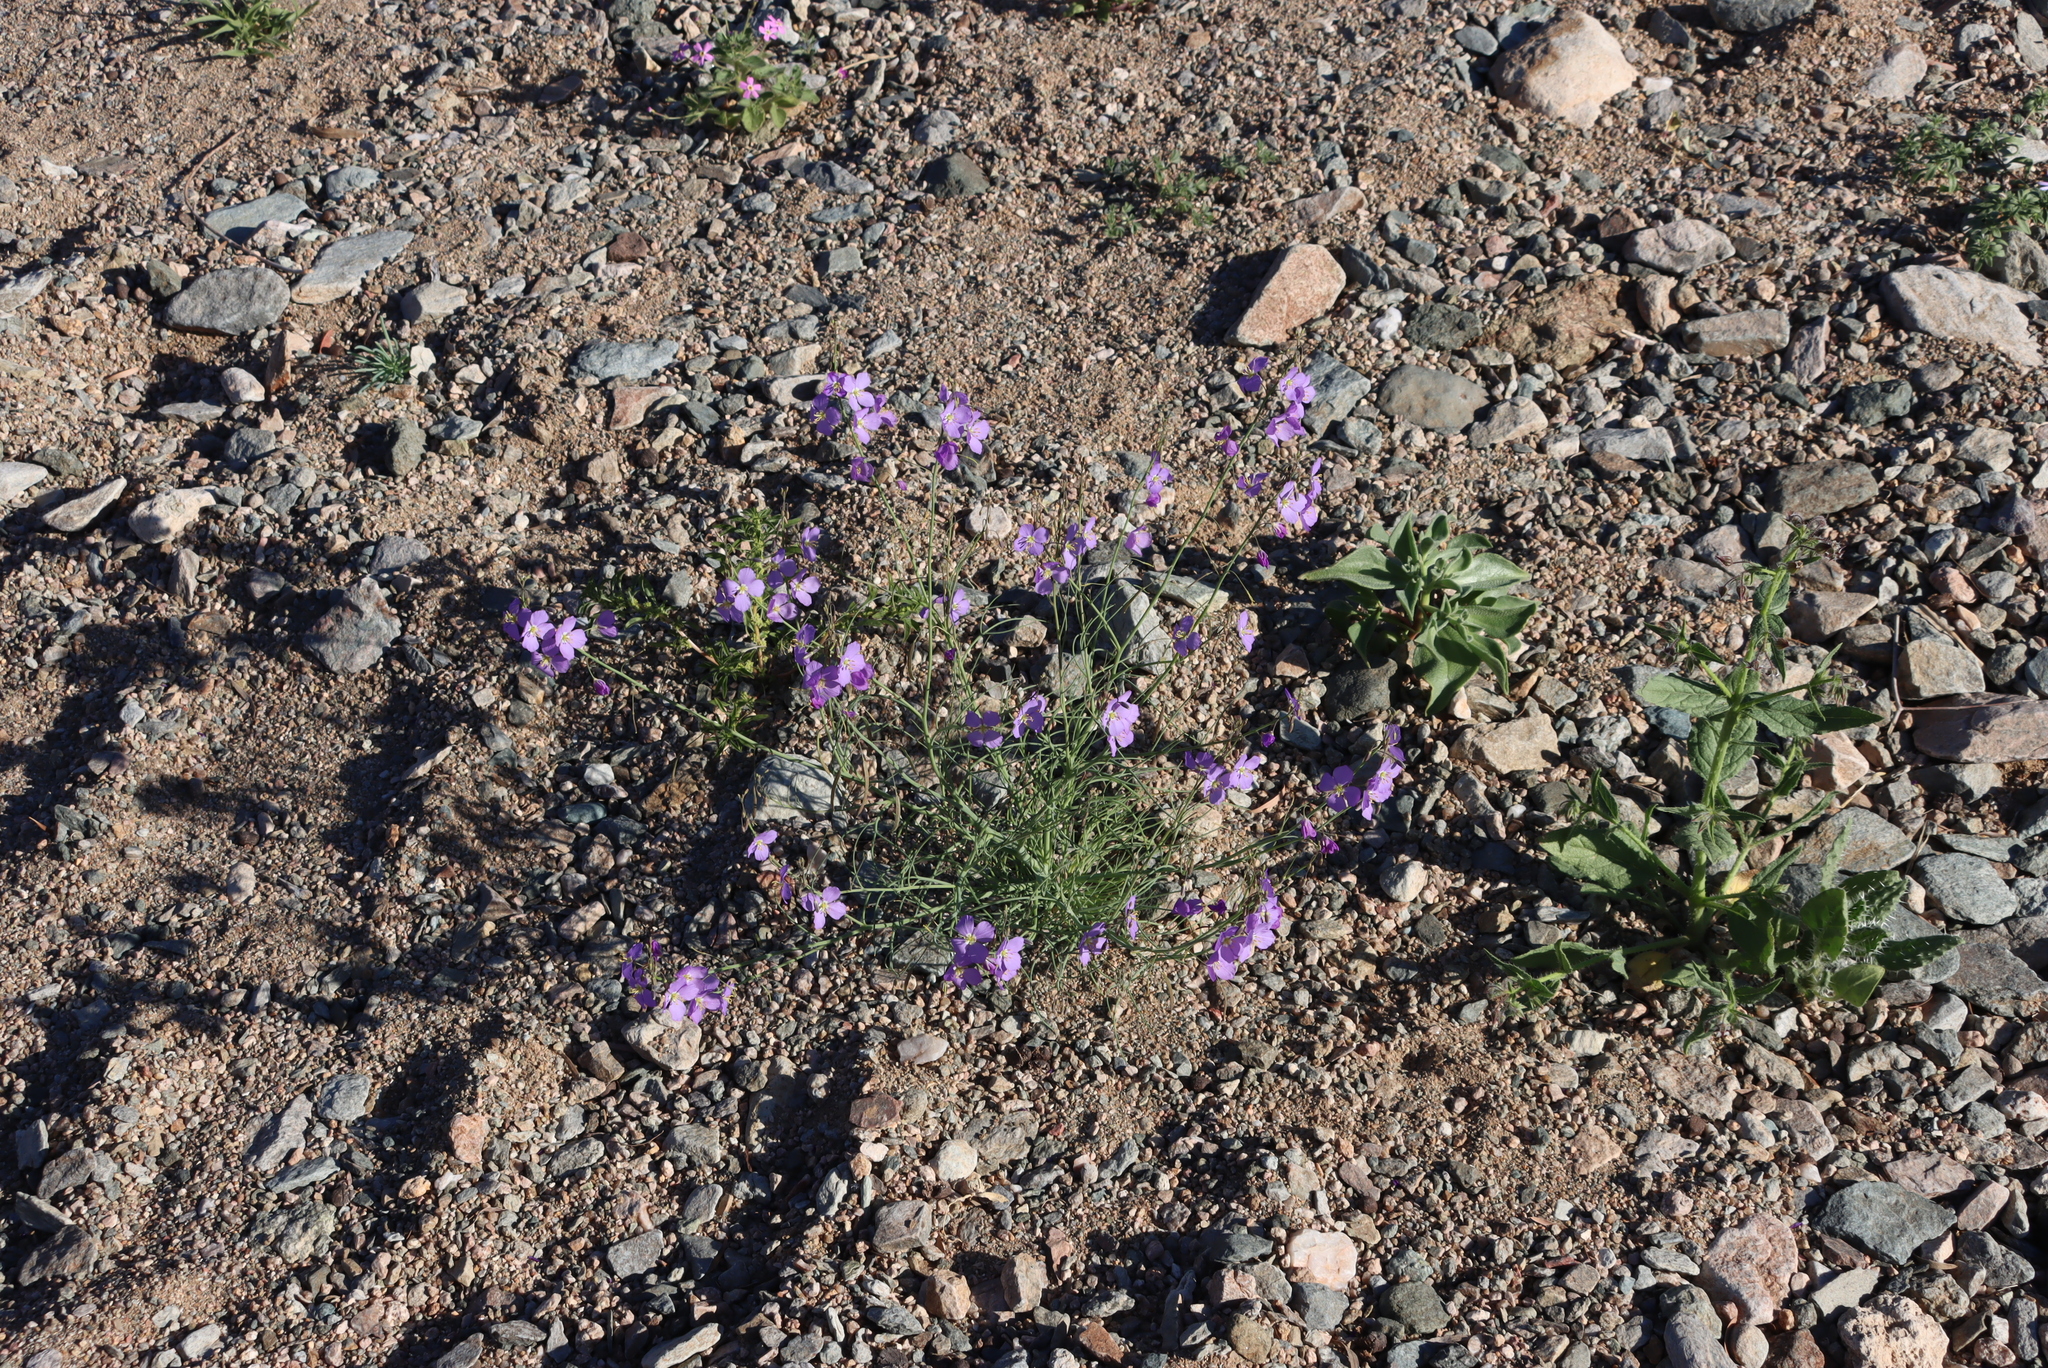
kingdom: Plantae
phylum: Tracheophyta
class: Magnoliopsida
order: Brassicales
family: Brassicaceae
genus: Heliophila
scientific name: Heliophila trifurca
